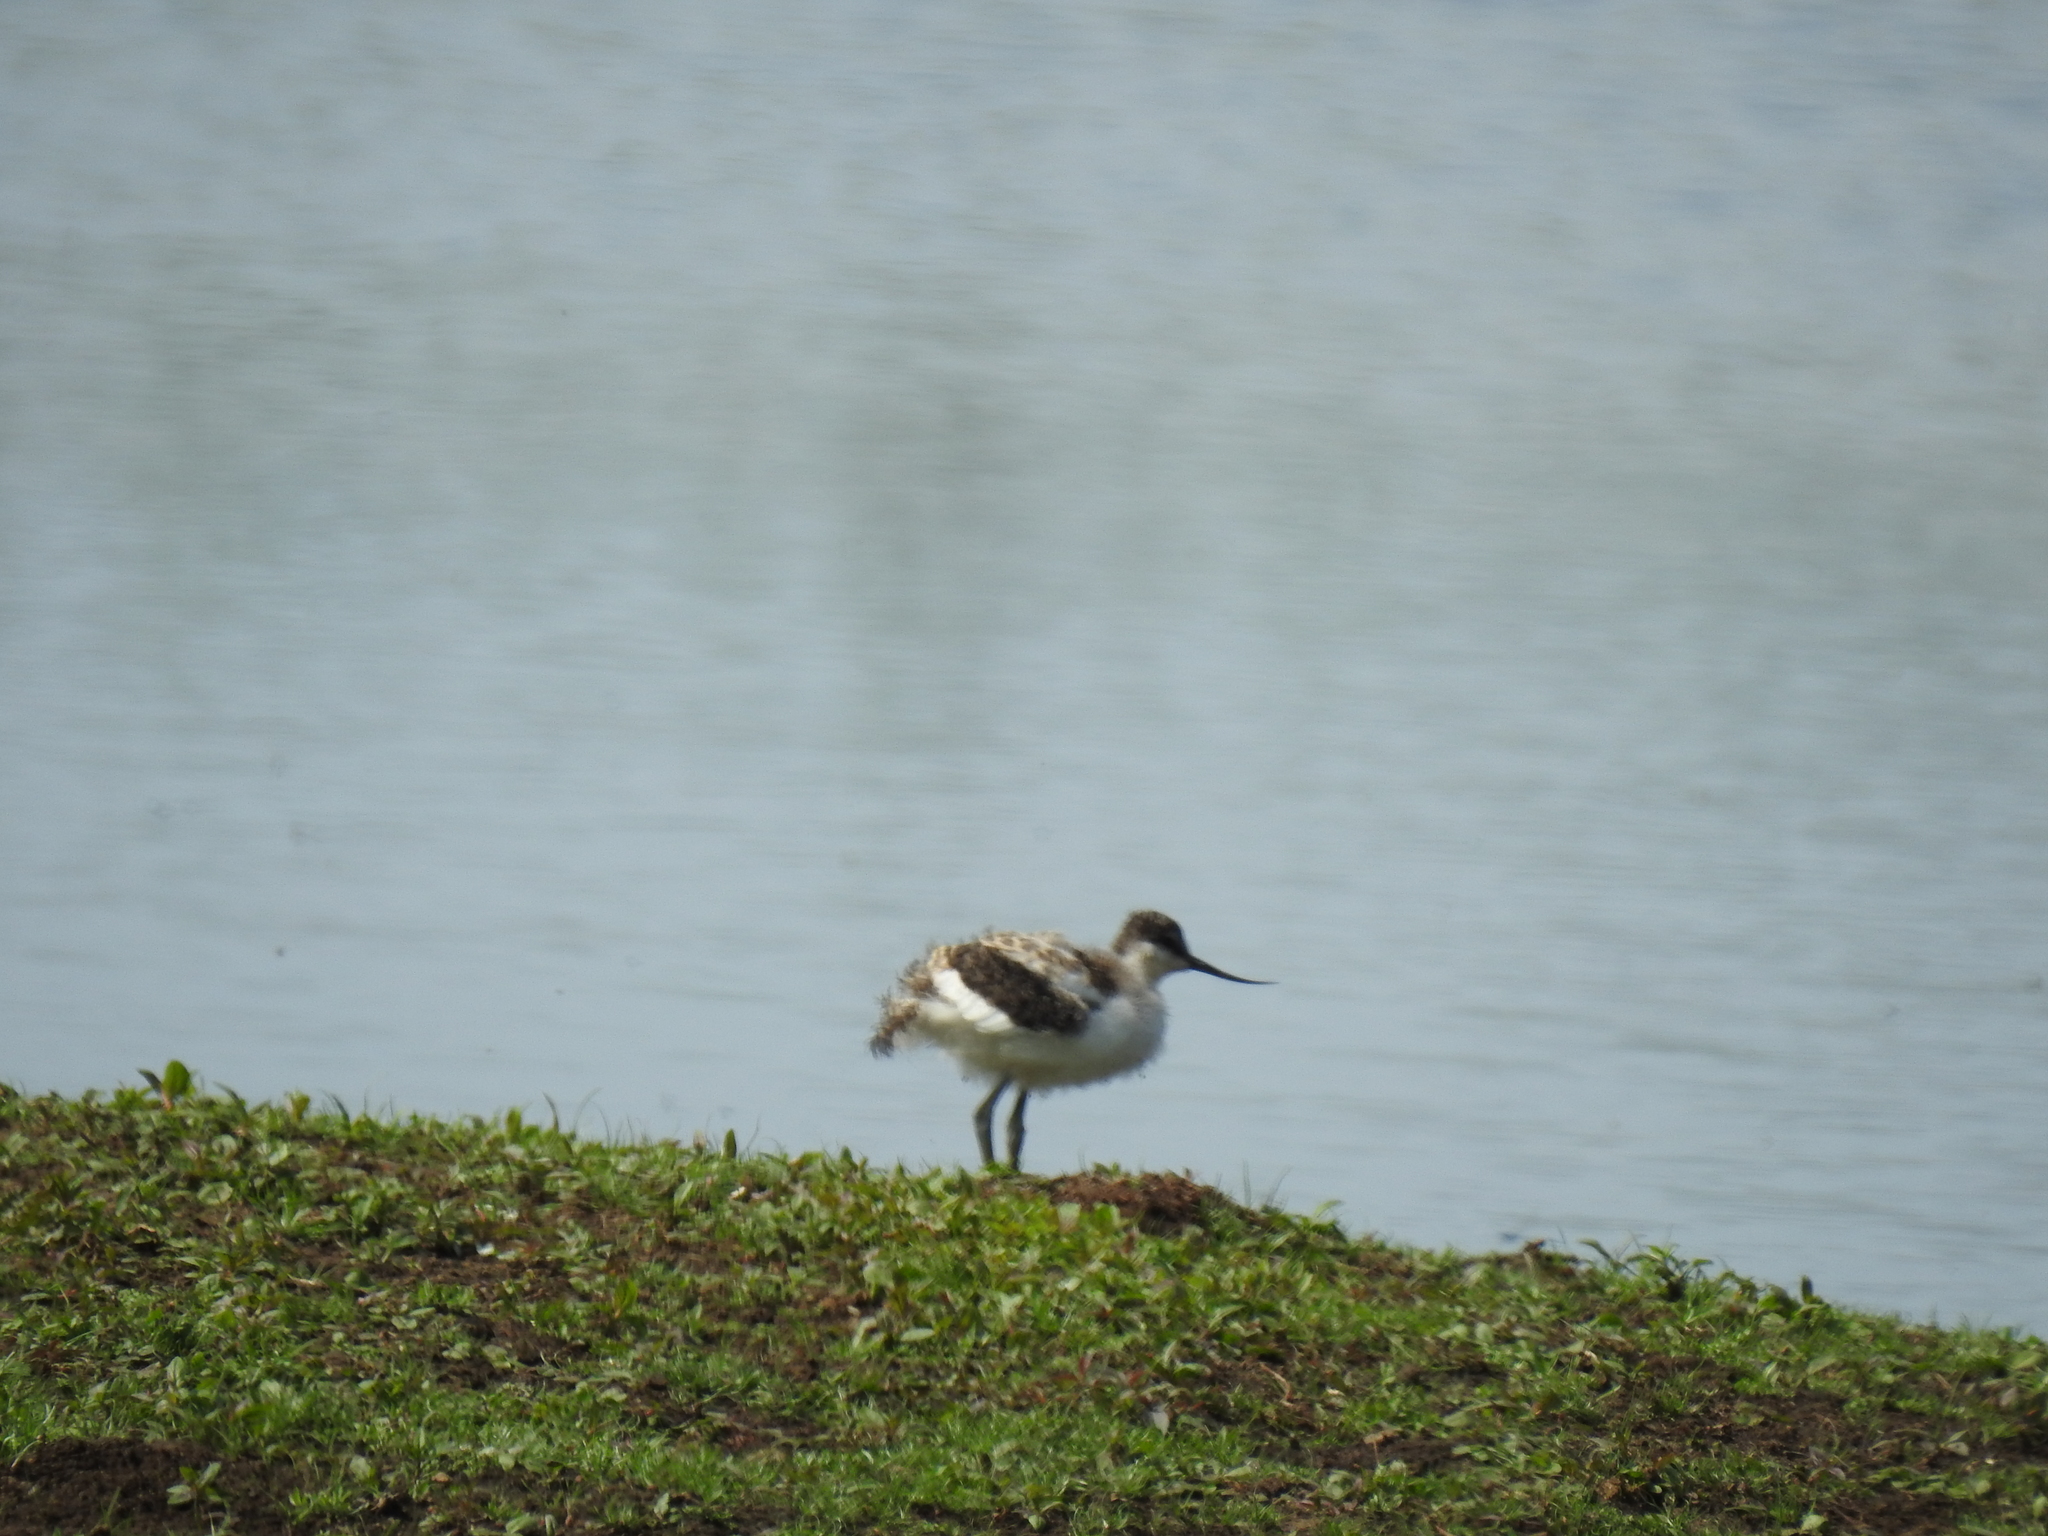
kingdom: Animalia
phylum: Chordata
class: Aves
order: Charadriiformes
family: Recurvirostridae
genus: Recurvirostra
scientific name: Recurvirostra avosetta
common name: Pied avocet
